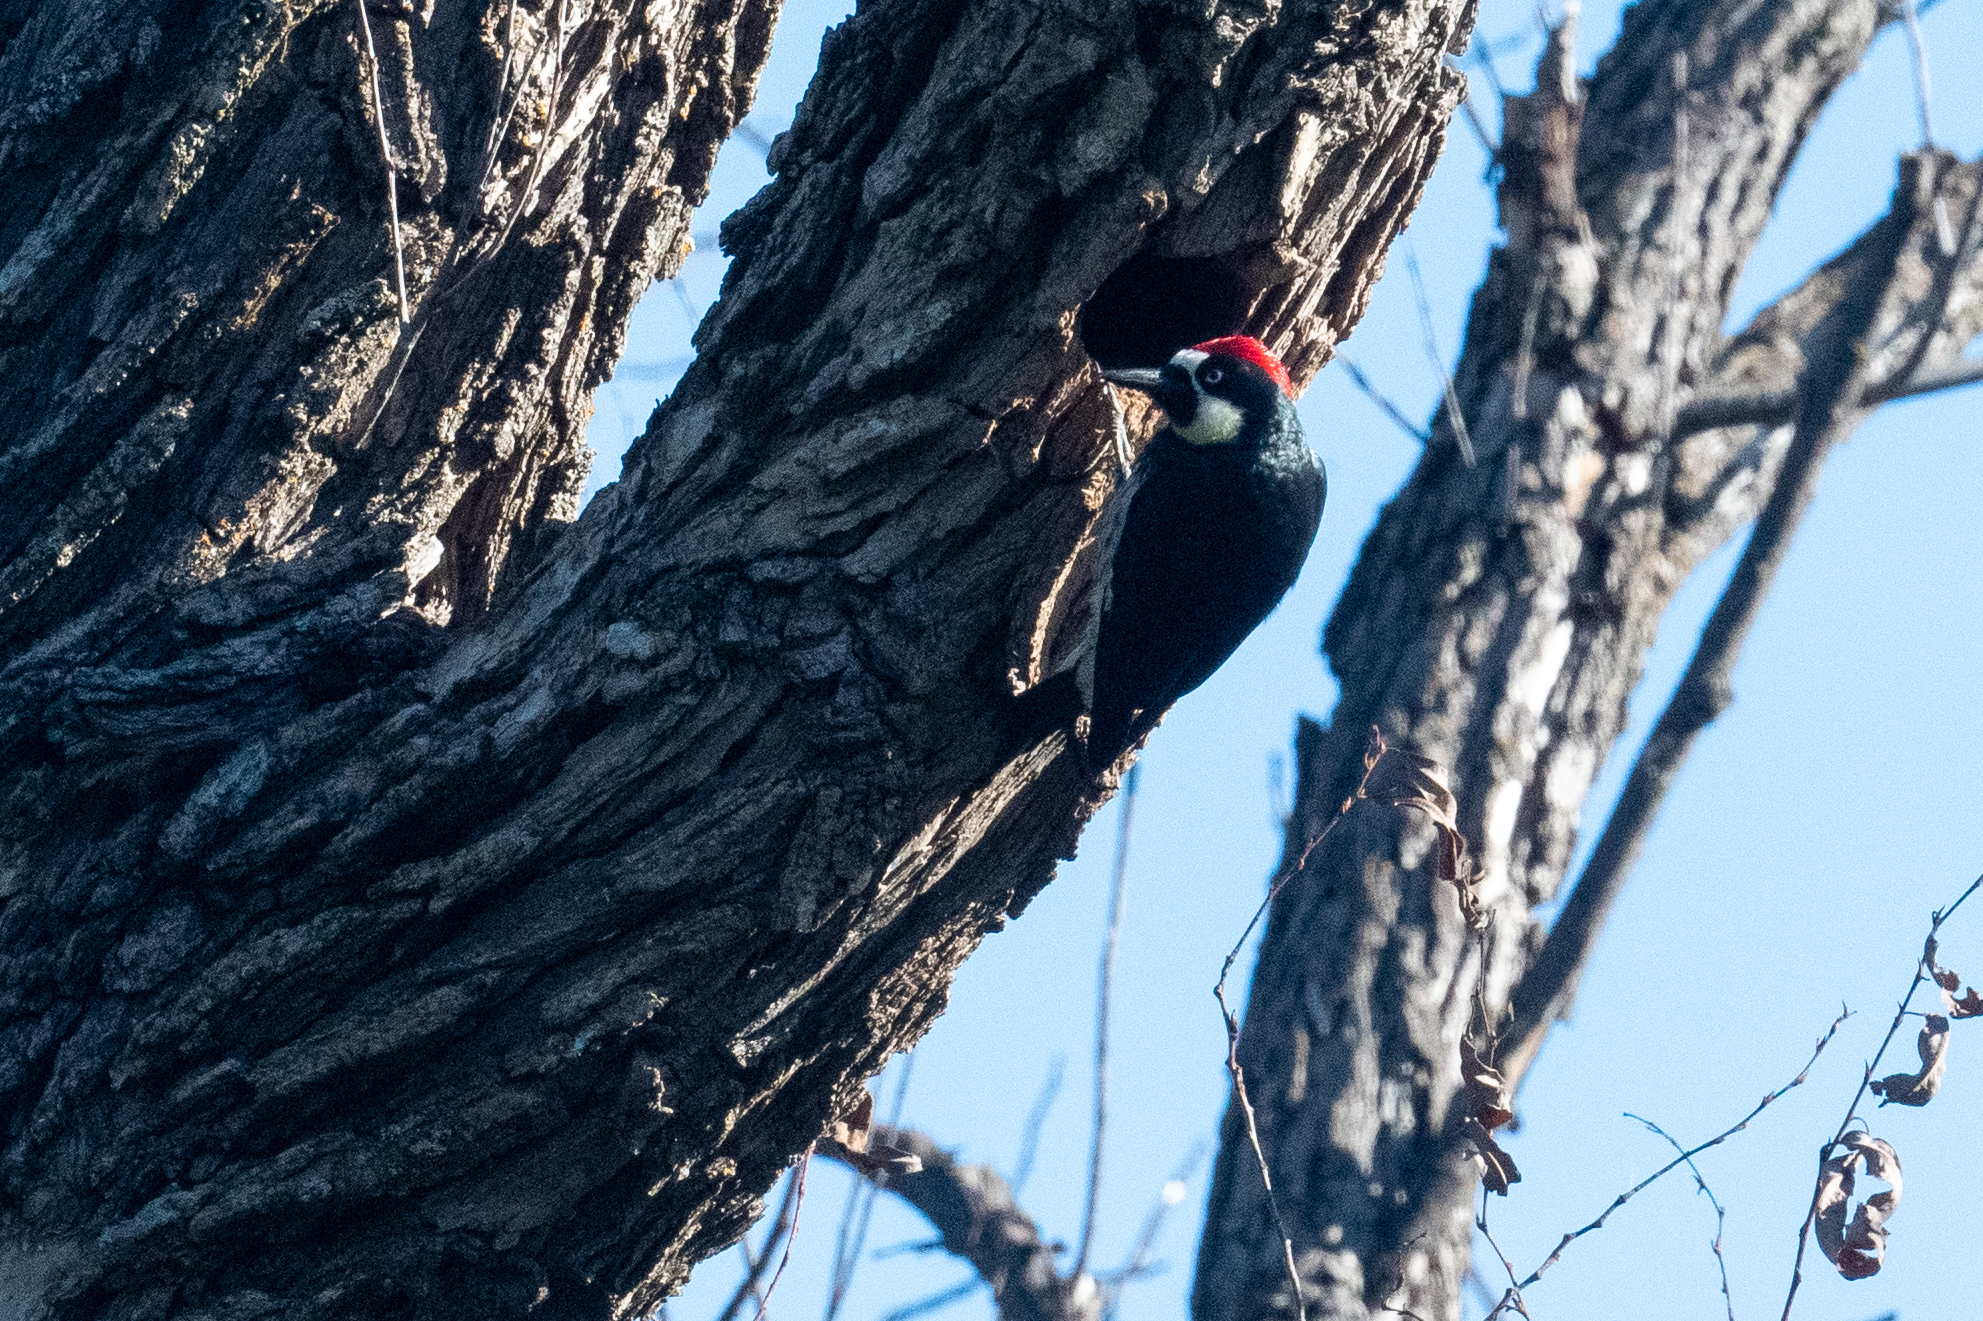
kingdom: Animalia
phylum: Chordata
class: Aves
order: Piciformes
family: Picidae
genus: Melanerpes
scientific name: Melanerpes formicivorus
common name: Acorn woodpecker
